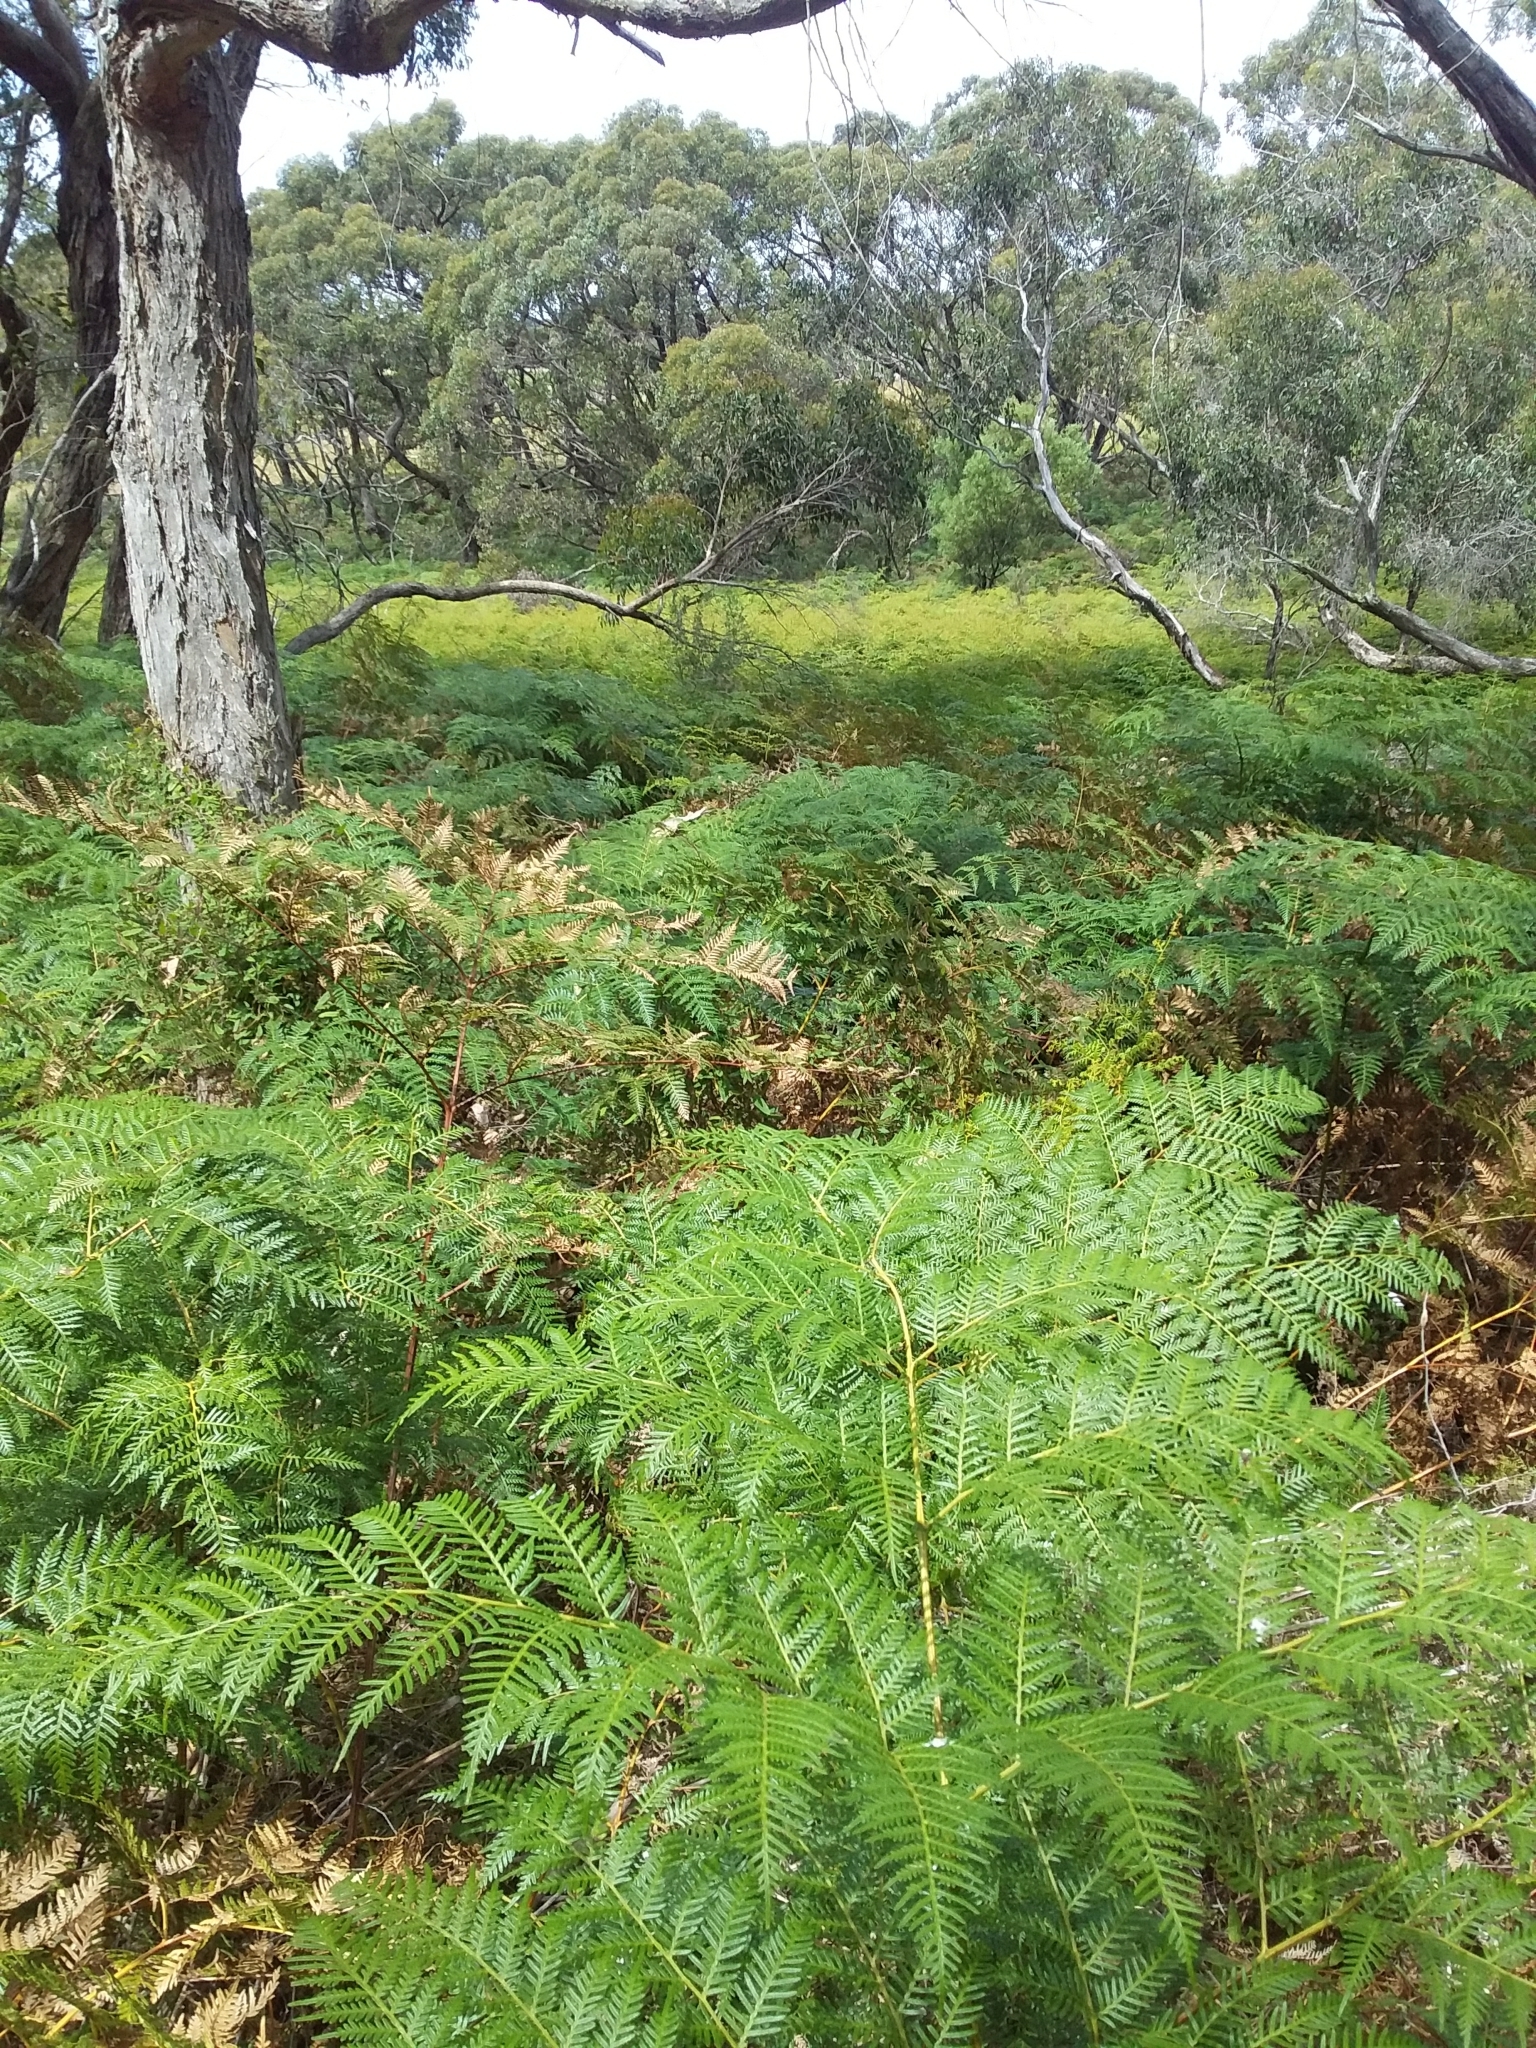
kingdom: Plantae
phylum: Tracheophyta
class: Polypodiopsida
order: Polypodiales
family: Dennstaedtiaceae
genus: Pteridium
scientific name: Pteridium esculentum
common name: Bracken fern
